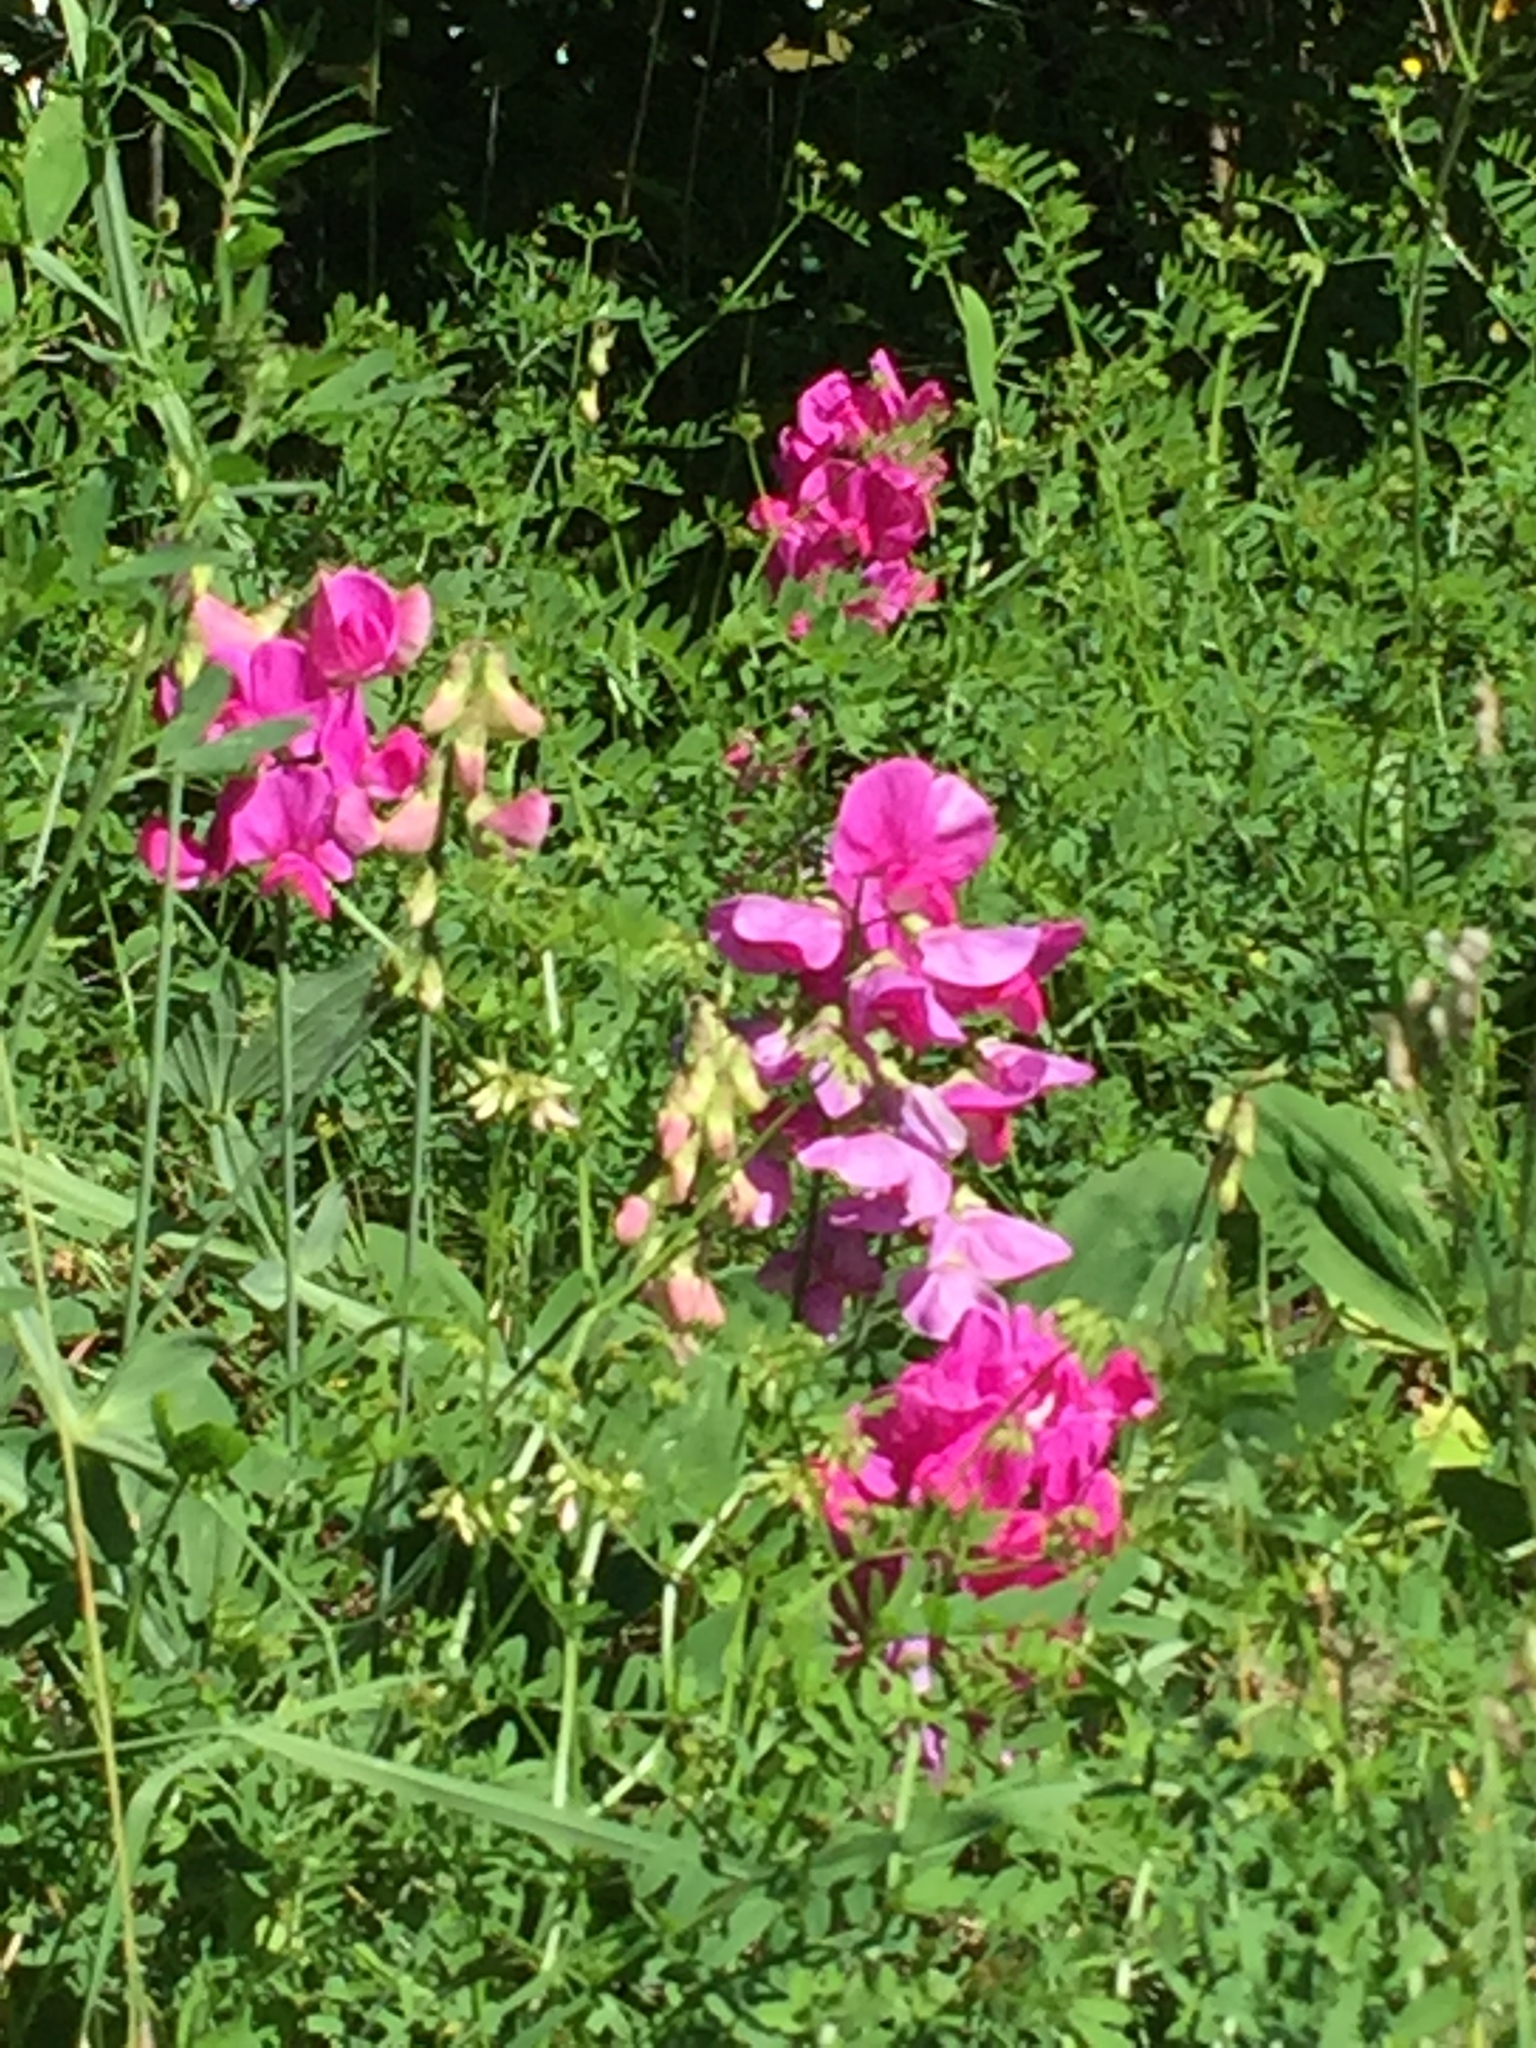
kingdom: Plantae
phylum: Tracheophyta
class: Magnoliopsida
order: Fabales
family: Fabaceae
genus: Lathyrus
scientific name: Lathyrus latifolius
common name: Perennial pea
